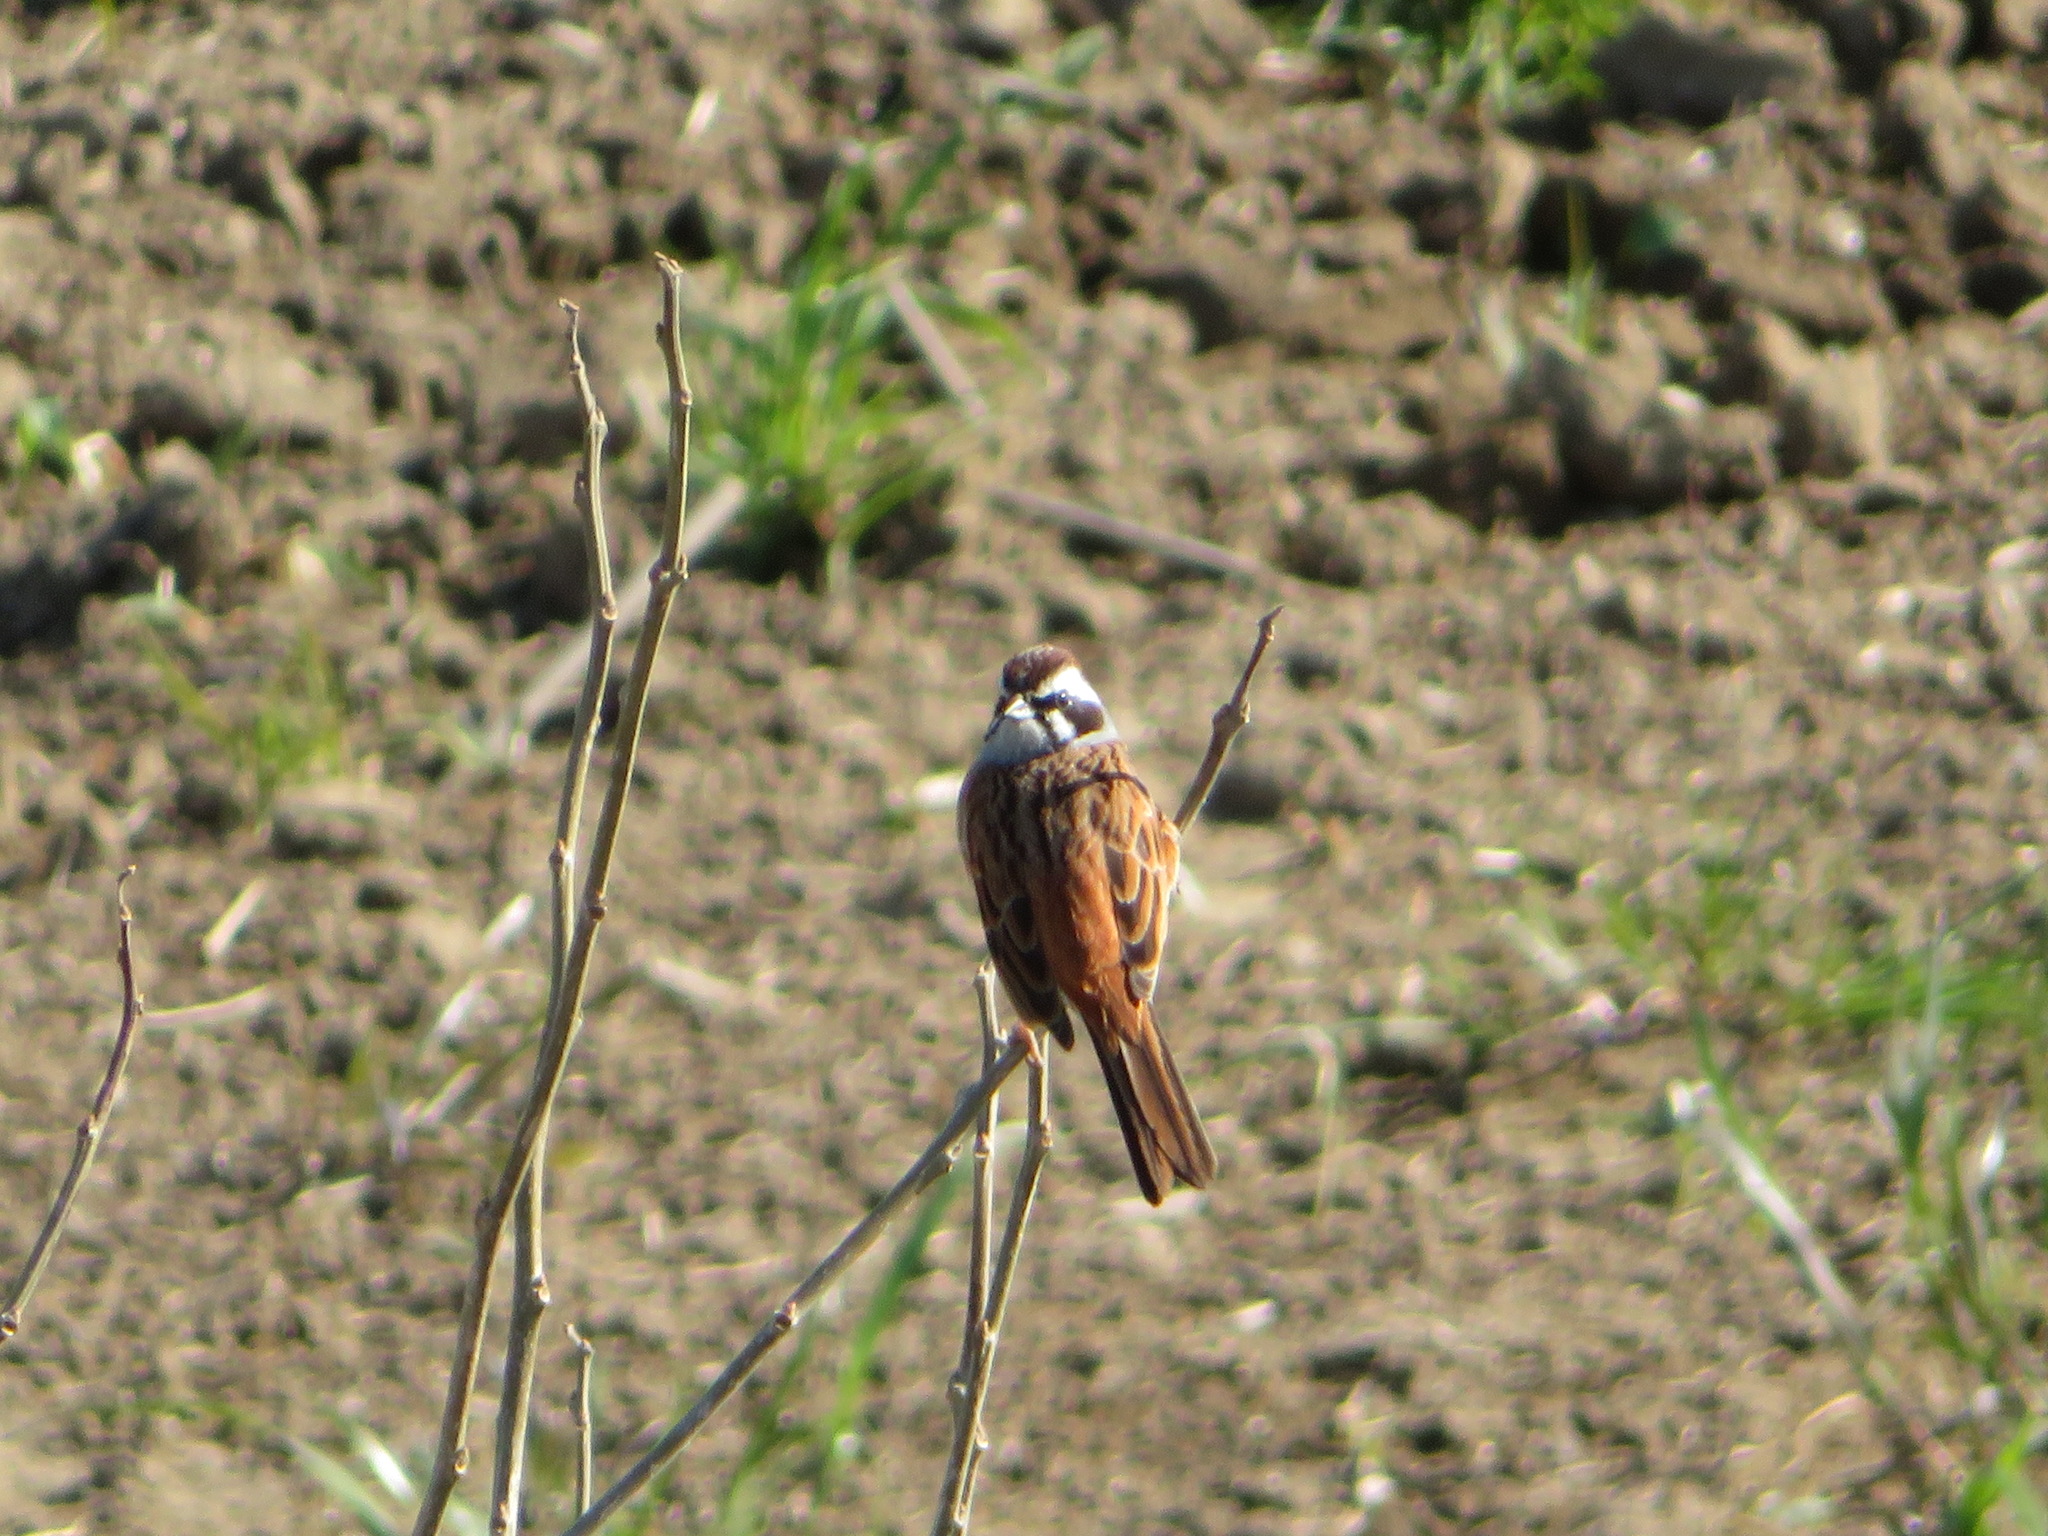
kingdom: Animalia
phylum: Chordata
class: Aves
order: Passeriformes
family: Emberizidae
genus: Emberiza
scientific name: Emberiza cioides
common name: Meadow bunting
